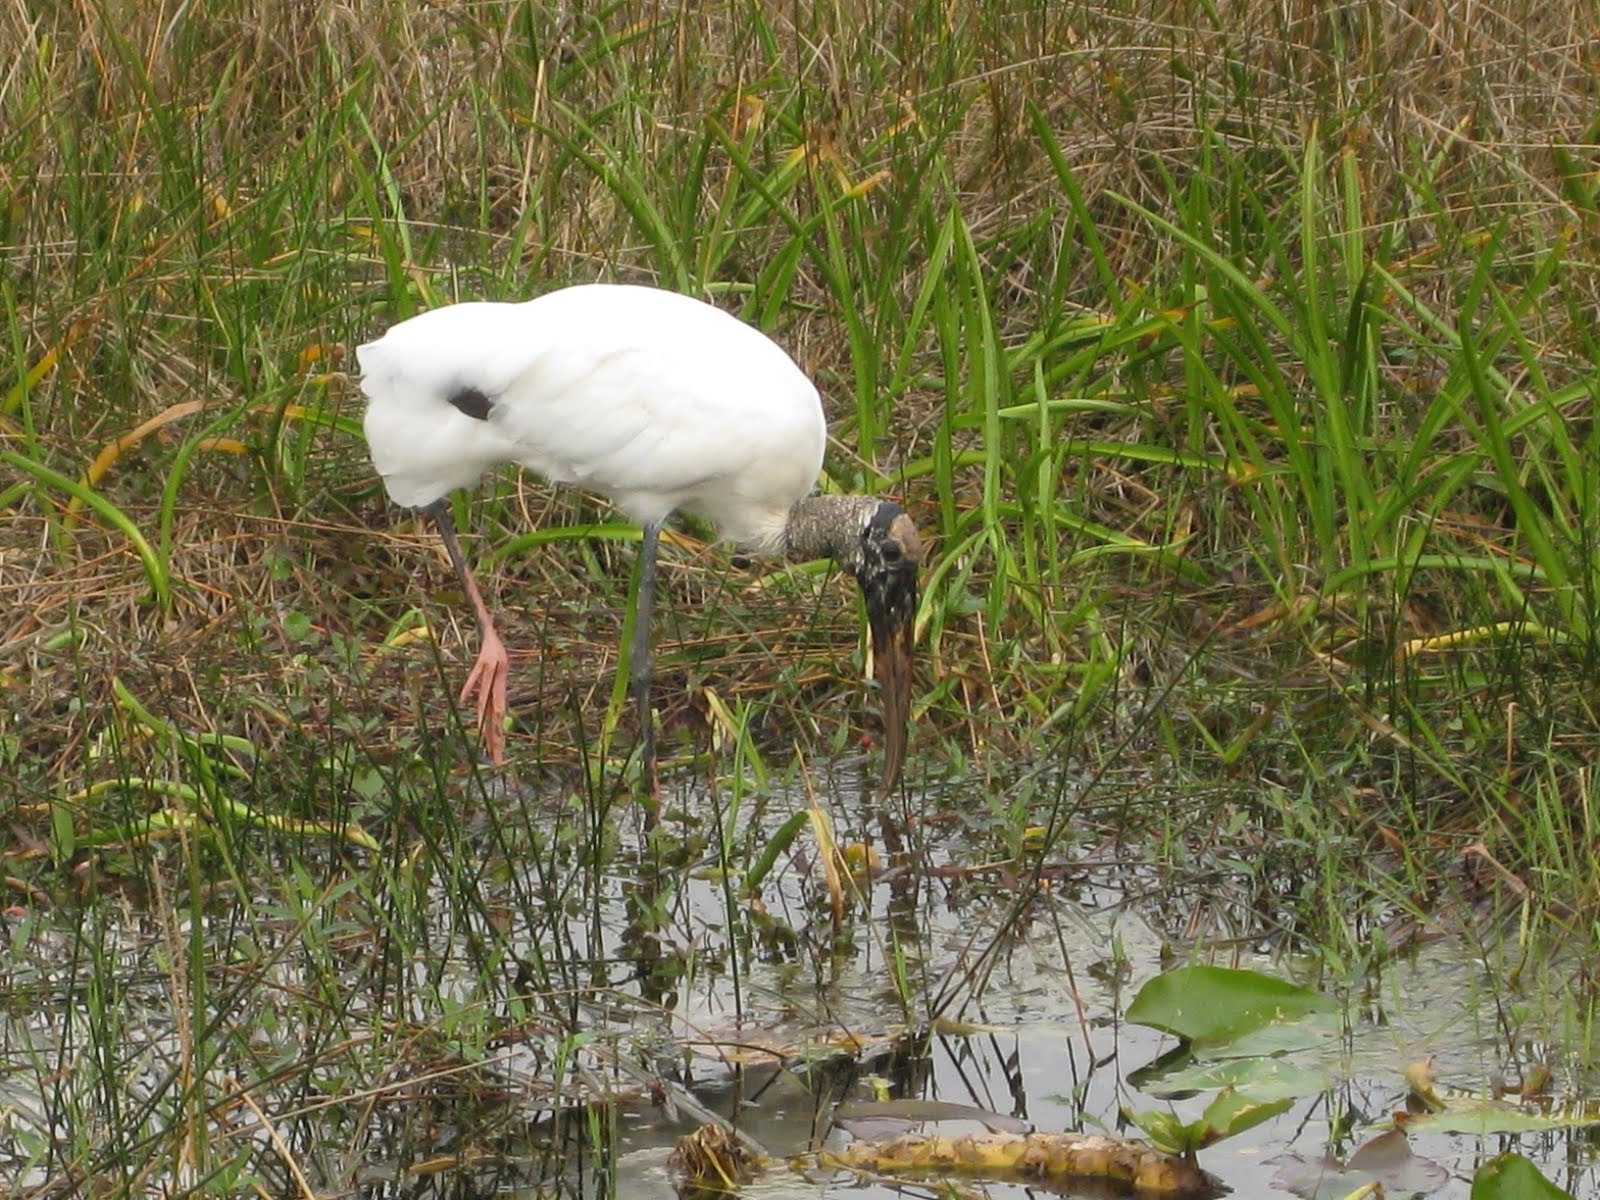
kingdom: Animalia
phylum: Chordata
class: Aves
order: Ciconiiformes
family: Ciconiidae
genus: Mycteria
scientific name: Mycteria americana
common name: Wood stork
